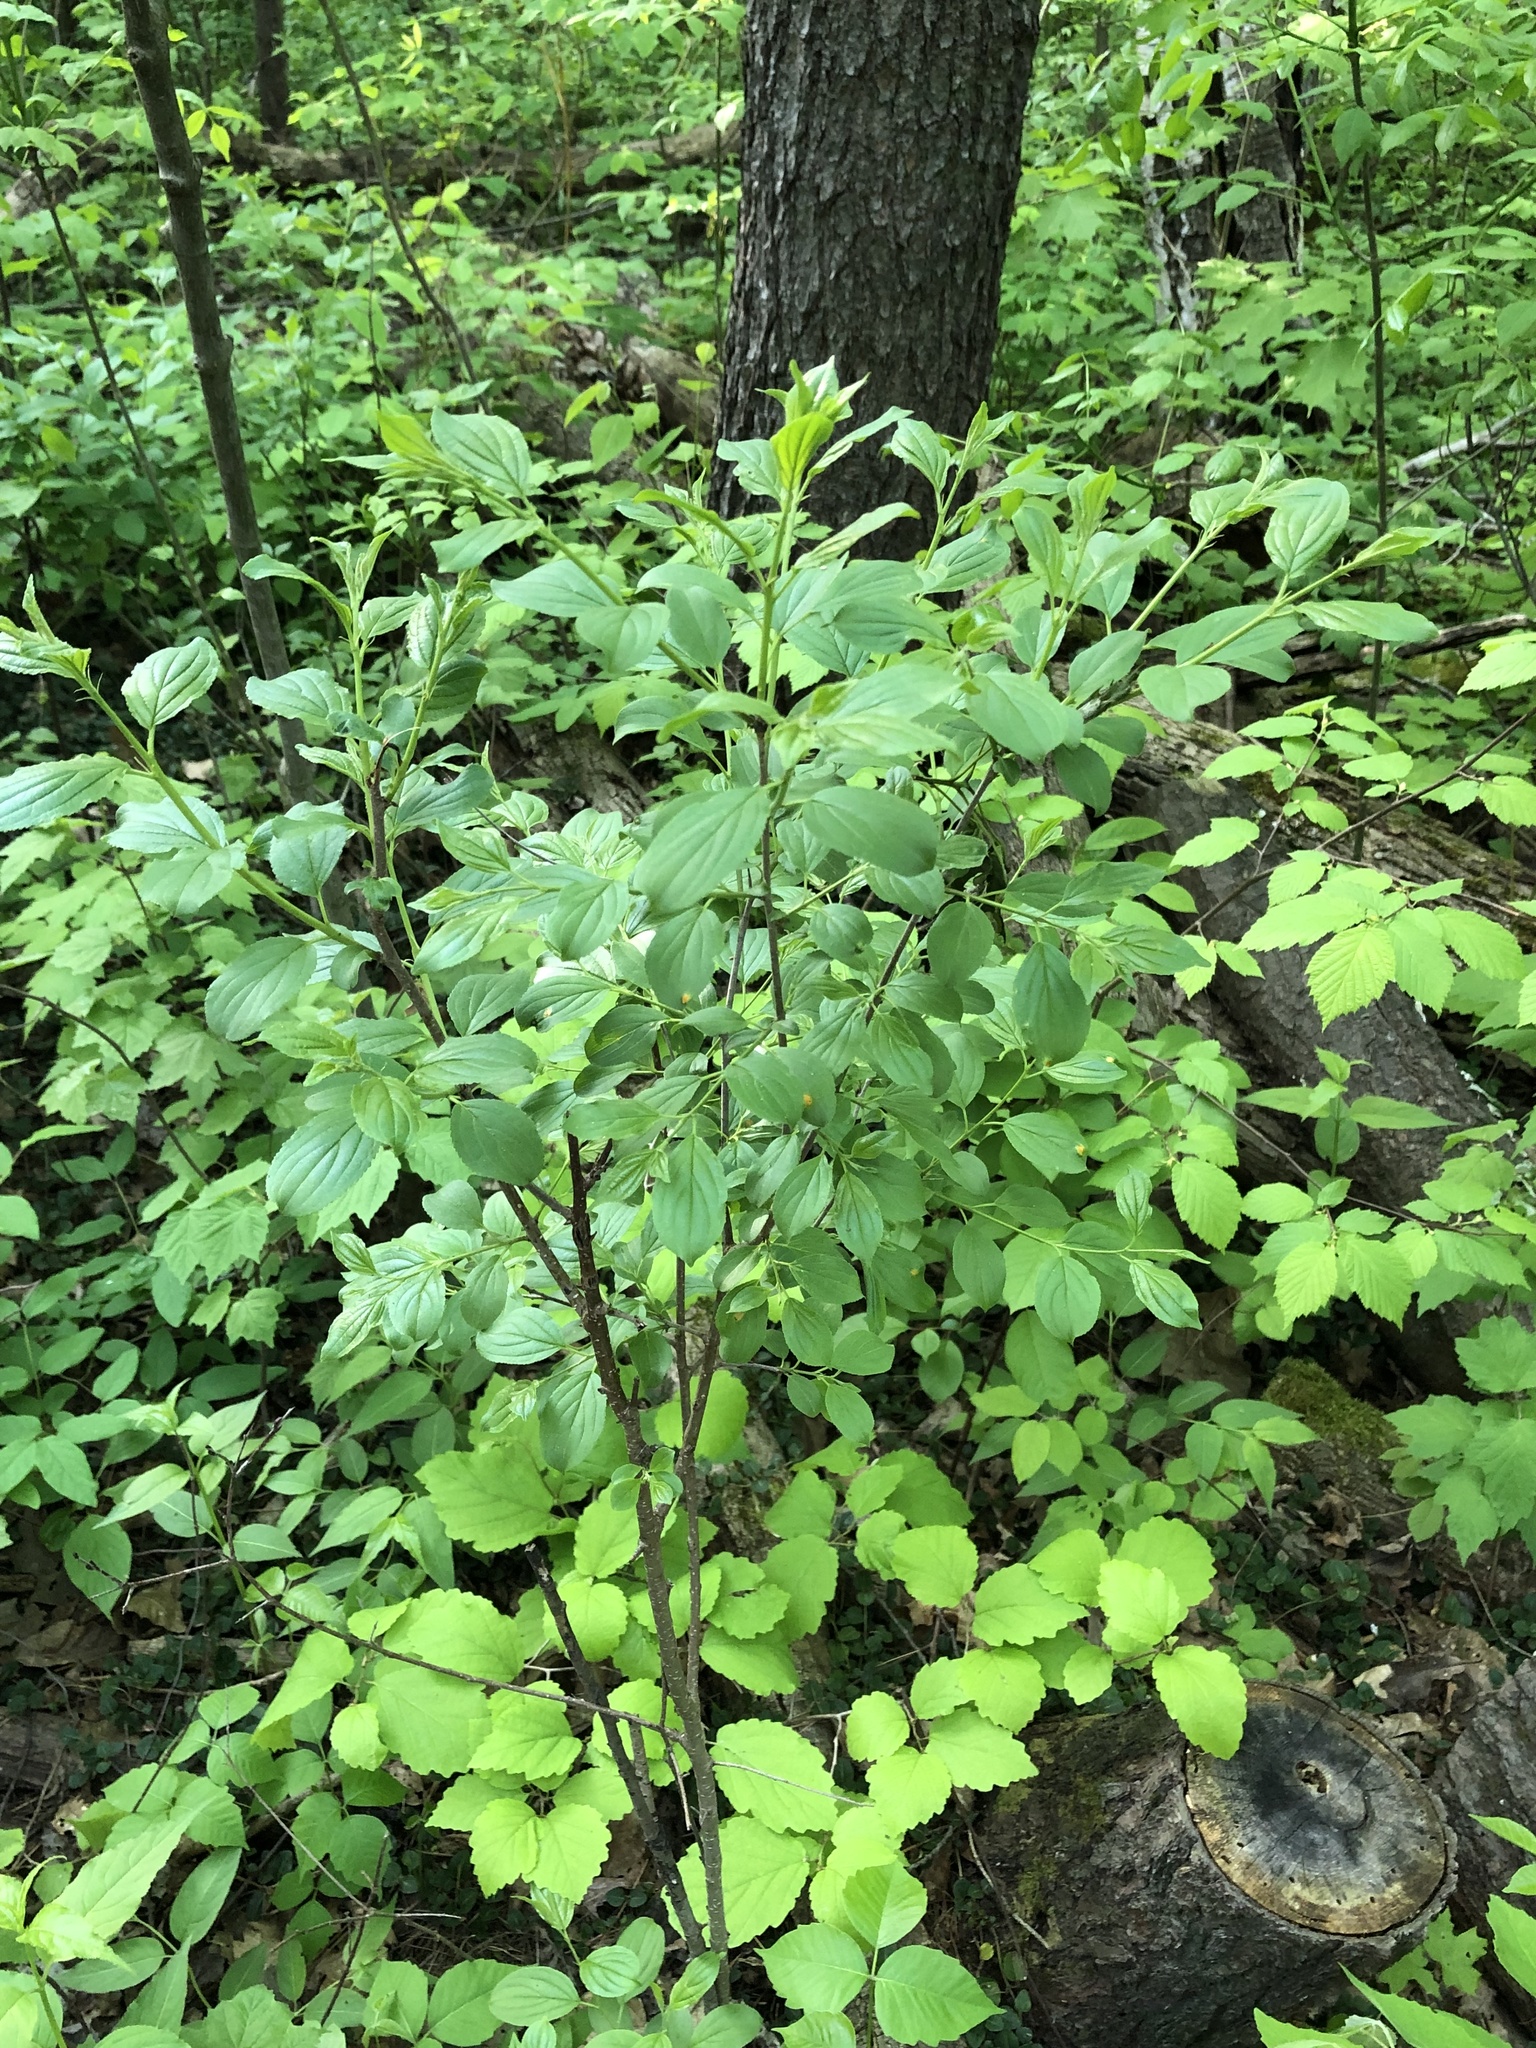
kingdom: Plantae
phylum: Tracheophyta
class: Magnoliopsida
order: Rosales
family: Rhamnaceae
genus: Rhamnus
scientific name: Rhamnus cathartica
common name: Common buckthorn
